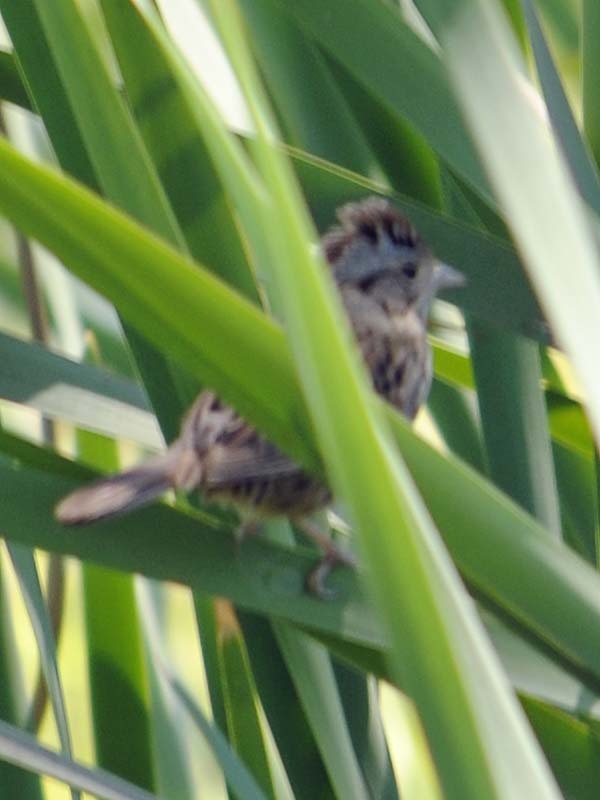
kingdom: Animalia
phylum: Chordata
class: Aves
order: Passeriformes
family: Passerellidae
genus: Melospiza
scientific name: Melospiza lincolnii
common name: Lincoln's sparrow
